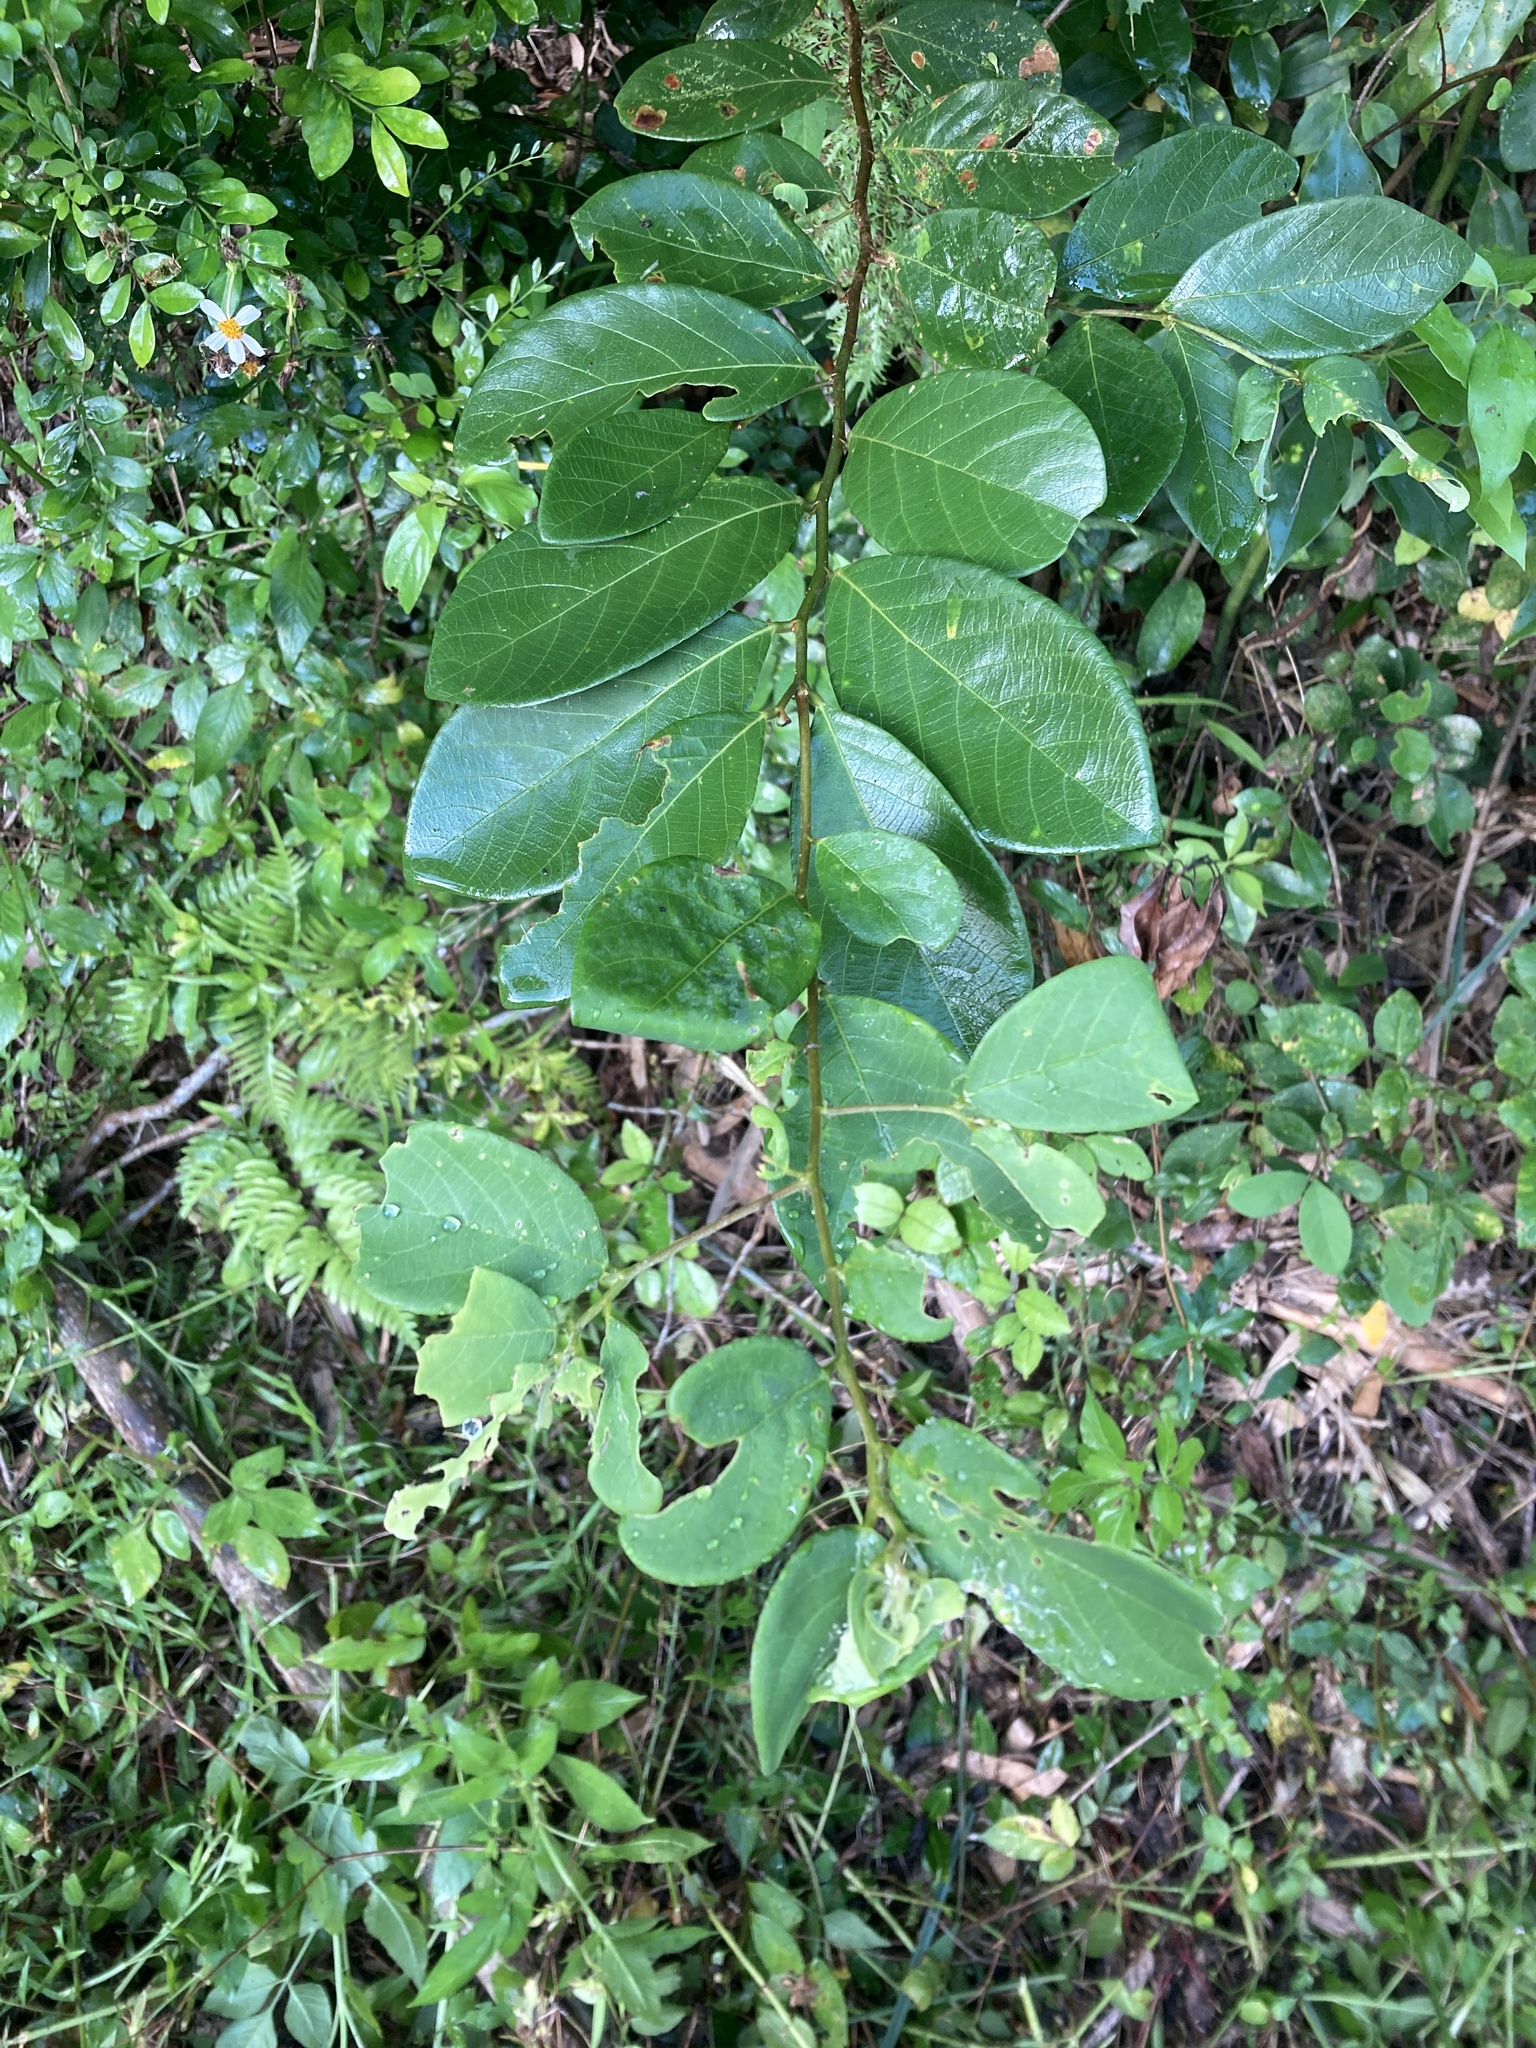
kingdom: Plantae
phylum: Tracheophyta
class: Magnoliopsida
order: Malpighiales
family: Phyllanthaceae
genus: Bridelia
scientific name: Bridelia tomentosa
